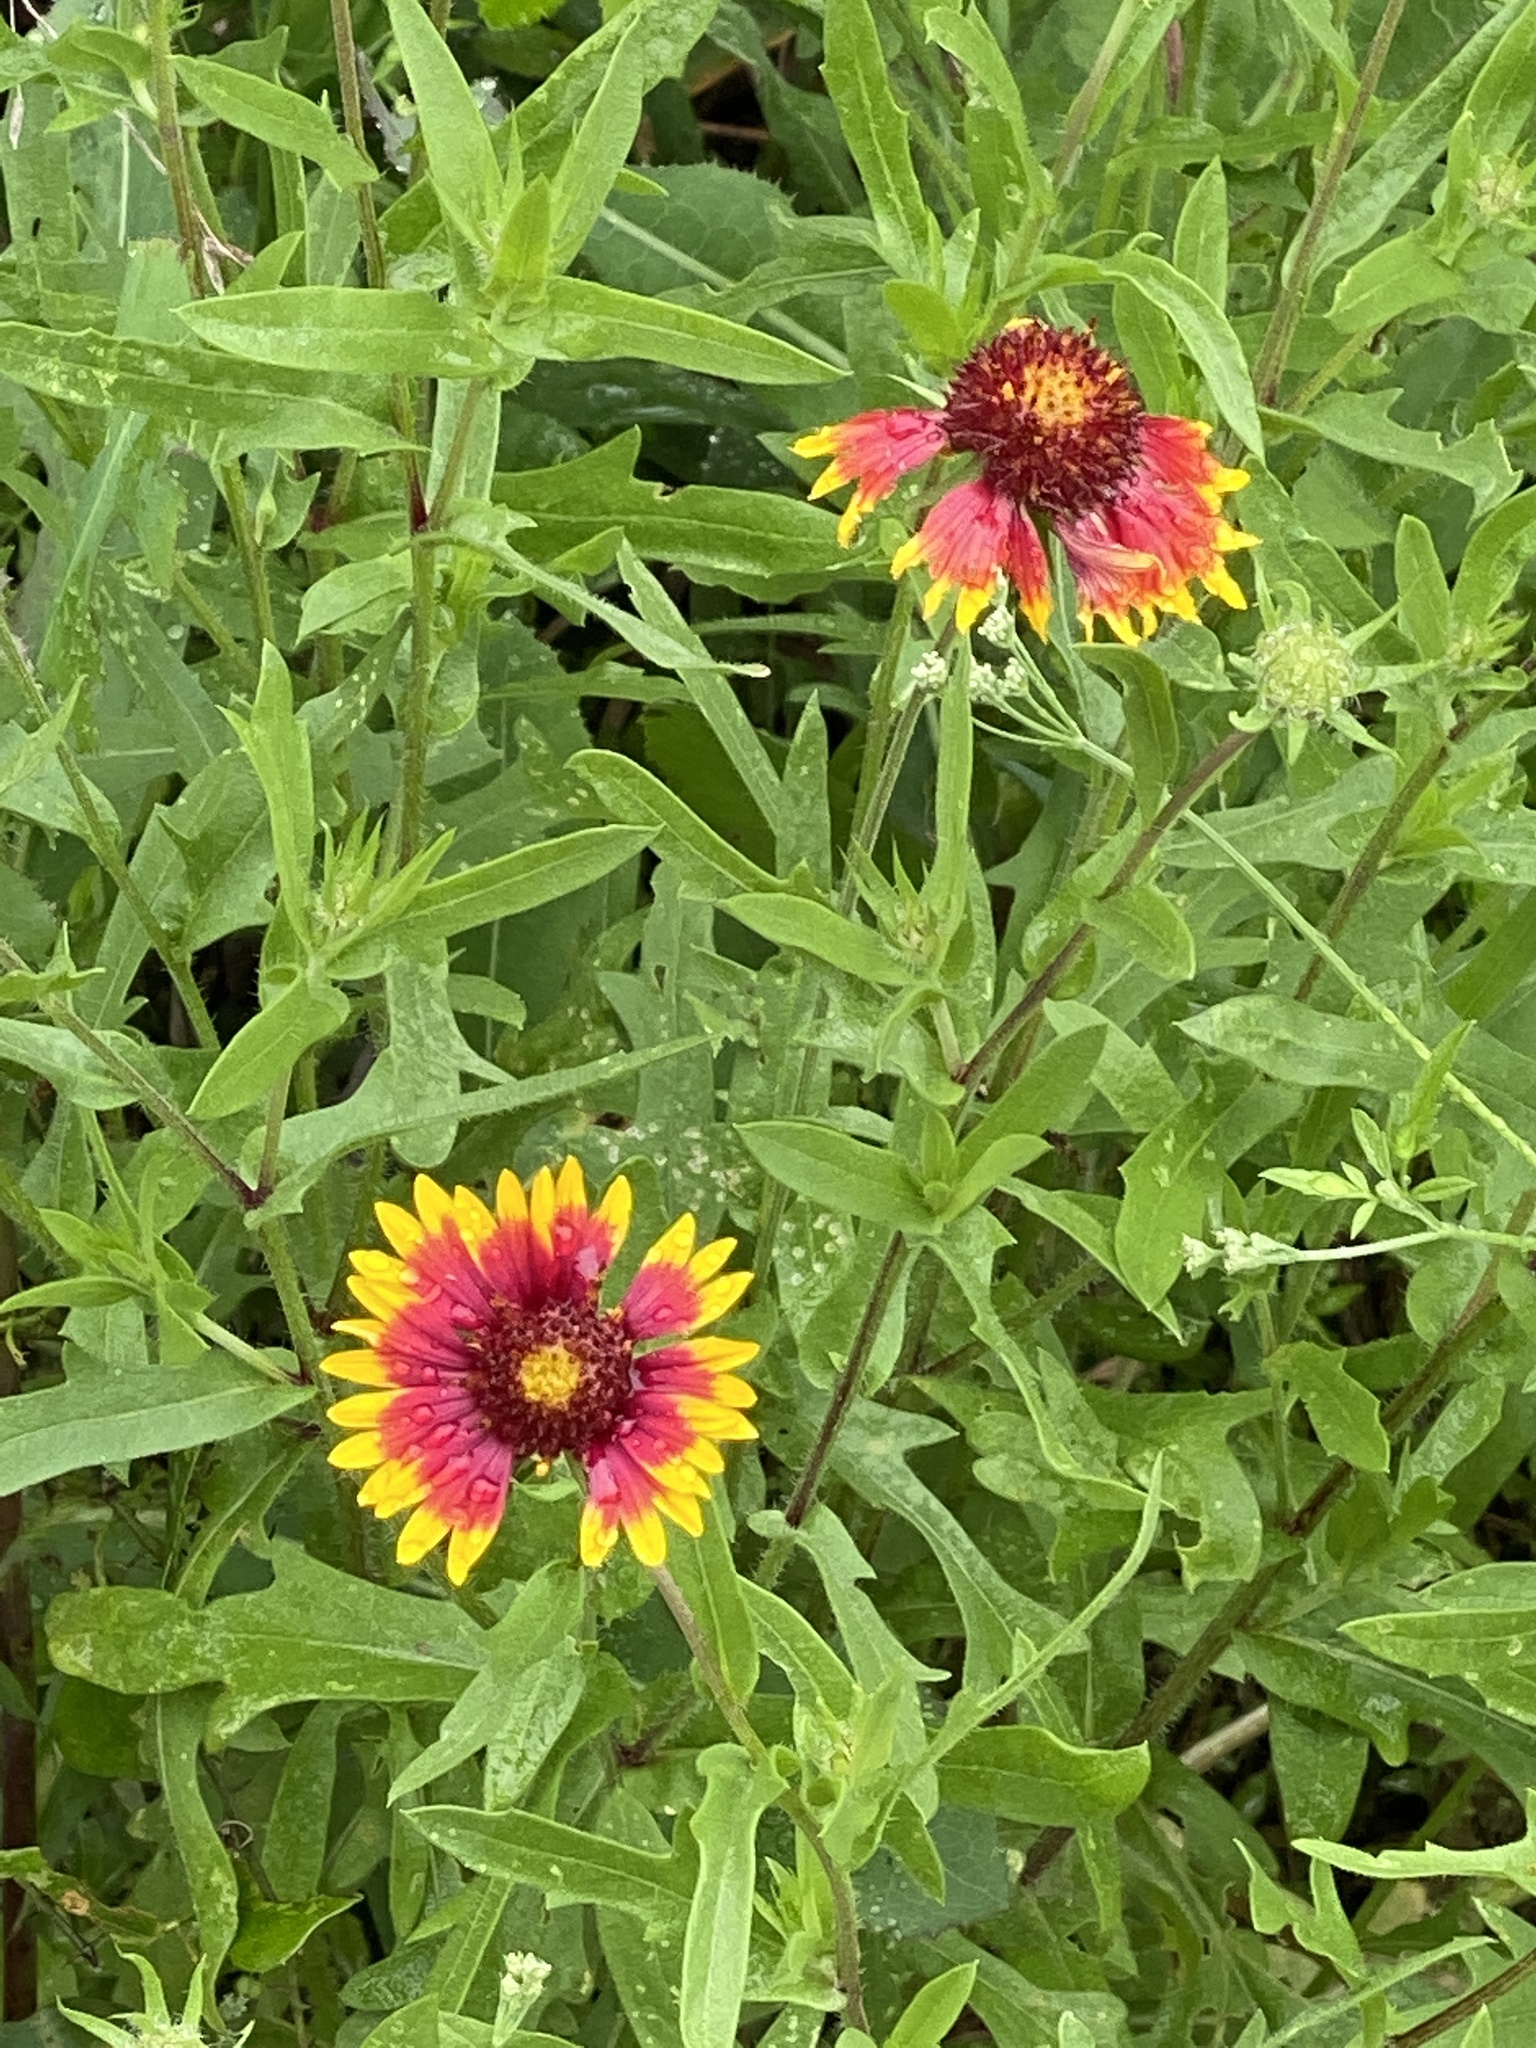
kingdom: Plantae
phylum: Tracheophyta
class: Magnoliopsida
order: Asterales
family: Asteraceae
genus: Gaillardia
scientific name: Gaillardia pulchella
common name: Firewheel
